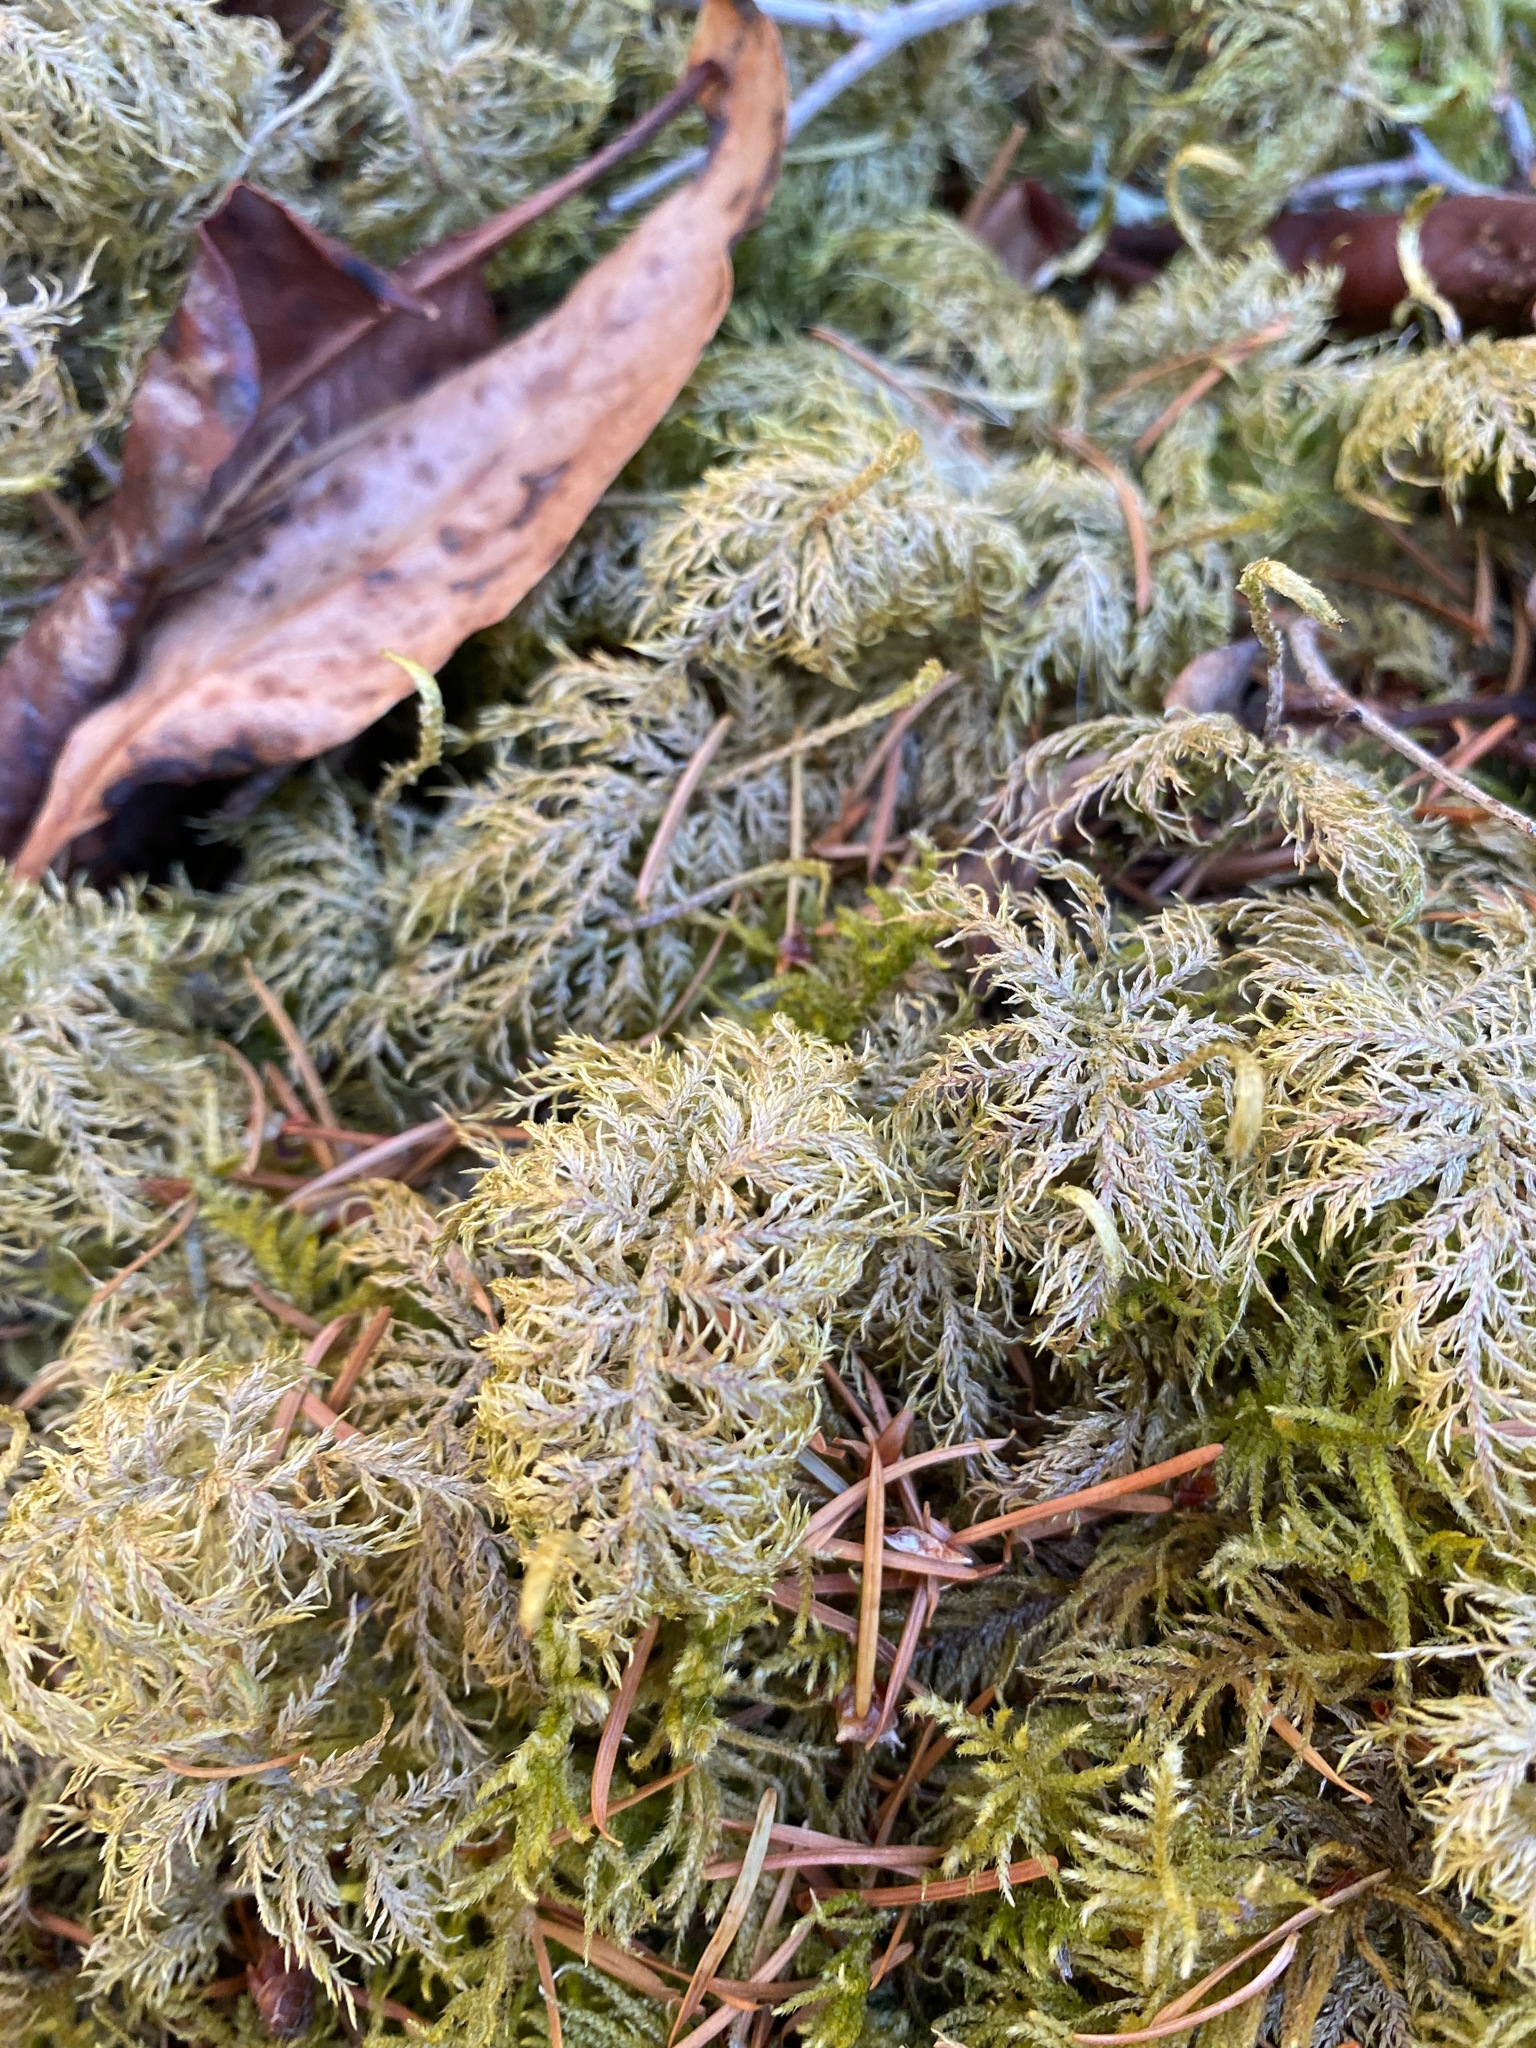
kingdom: Plantae
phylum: Bryophyta
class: Bryopsida
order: Hypnales
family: Hylocomiaceae
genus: Hylocomium
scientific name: Hylocomium splendens
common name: Stairstep moss
